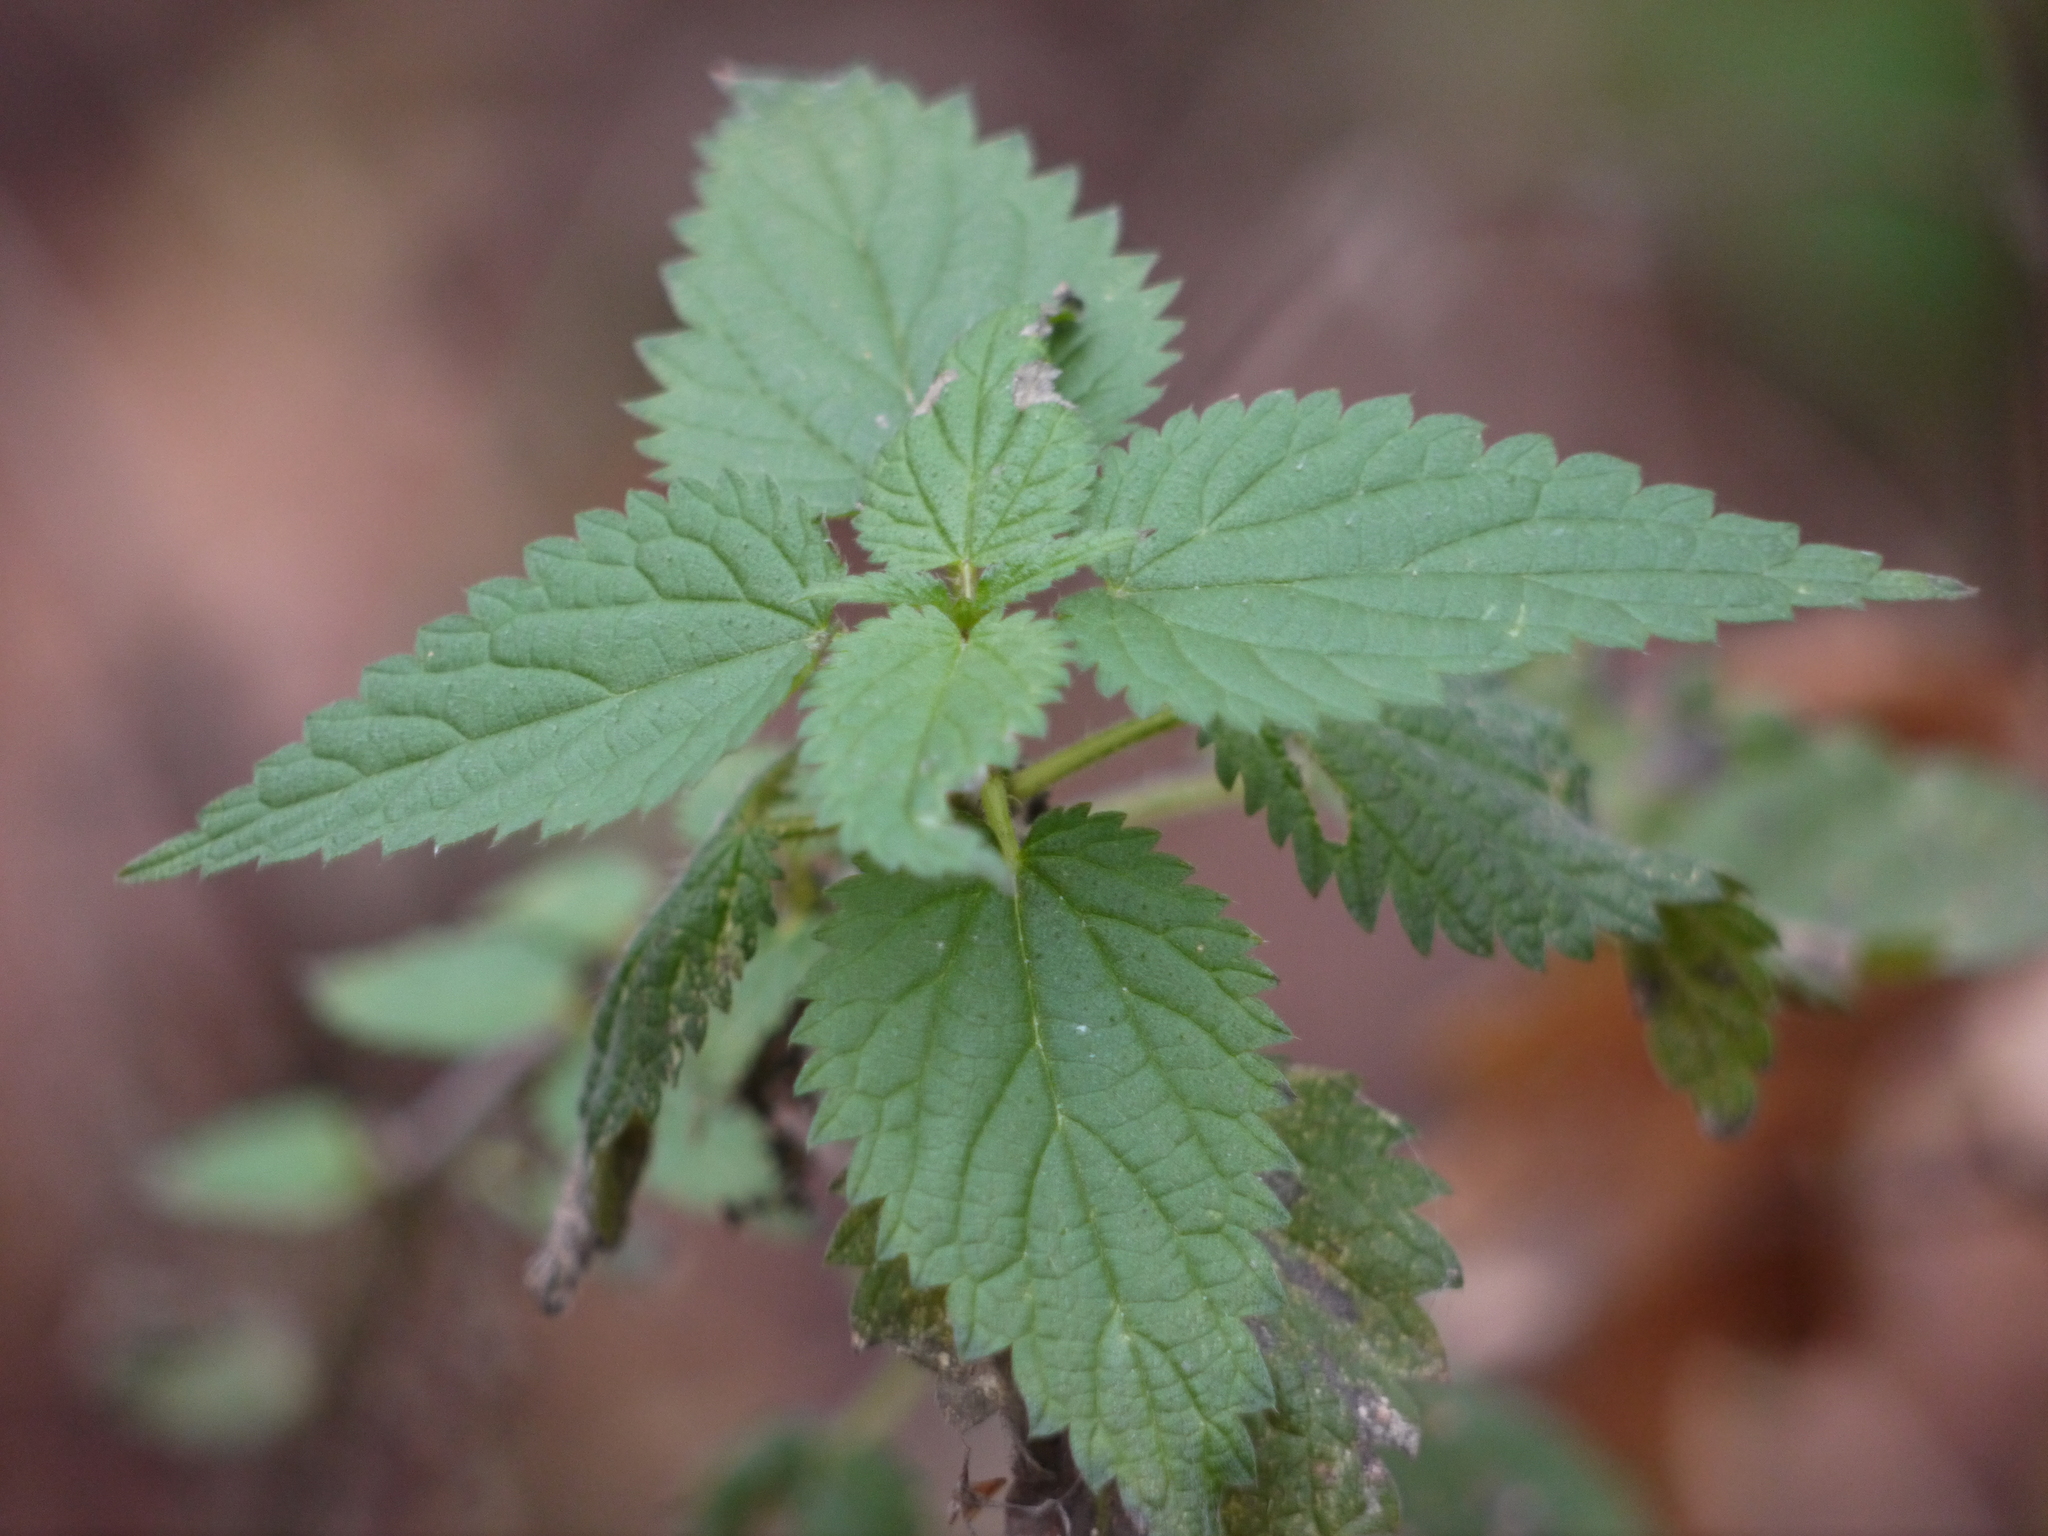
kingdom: Plantae
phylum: Tracheophyta
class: Magnoliopsida
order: Rosales
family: Urticaceae
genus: Urtica
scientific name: Urtica dioica
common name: Common nettle
